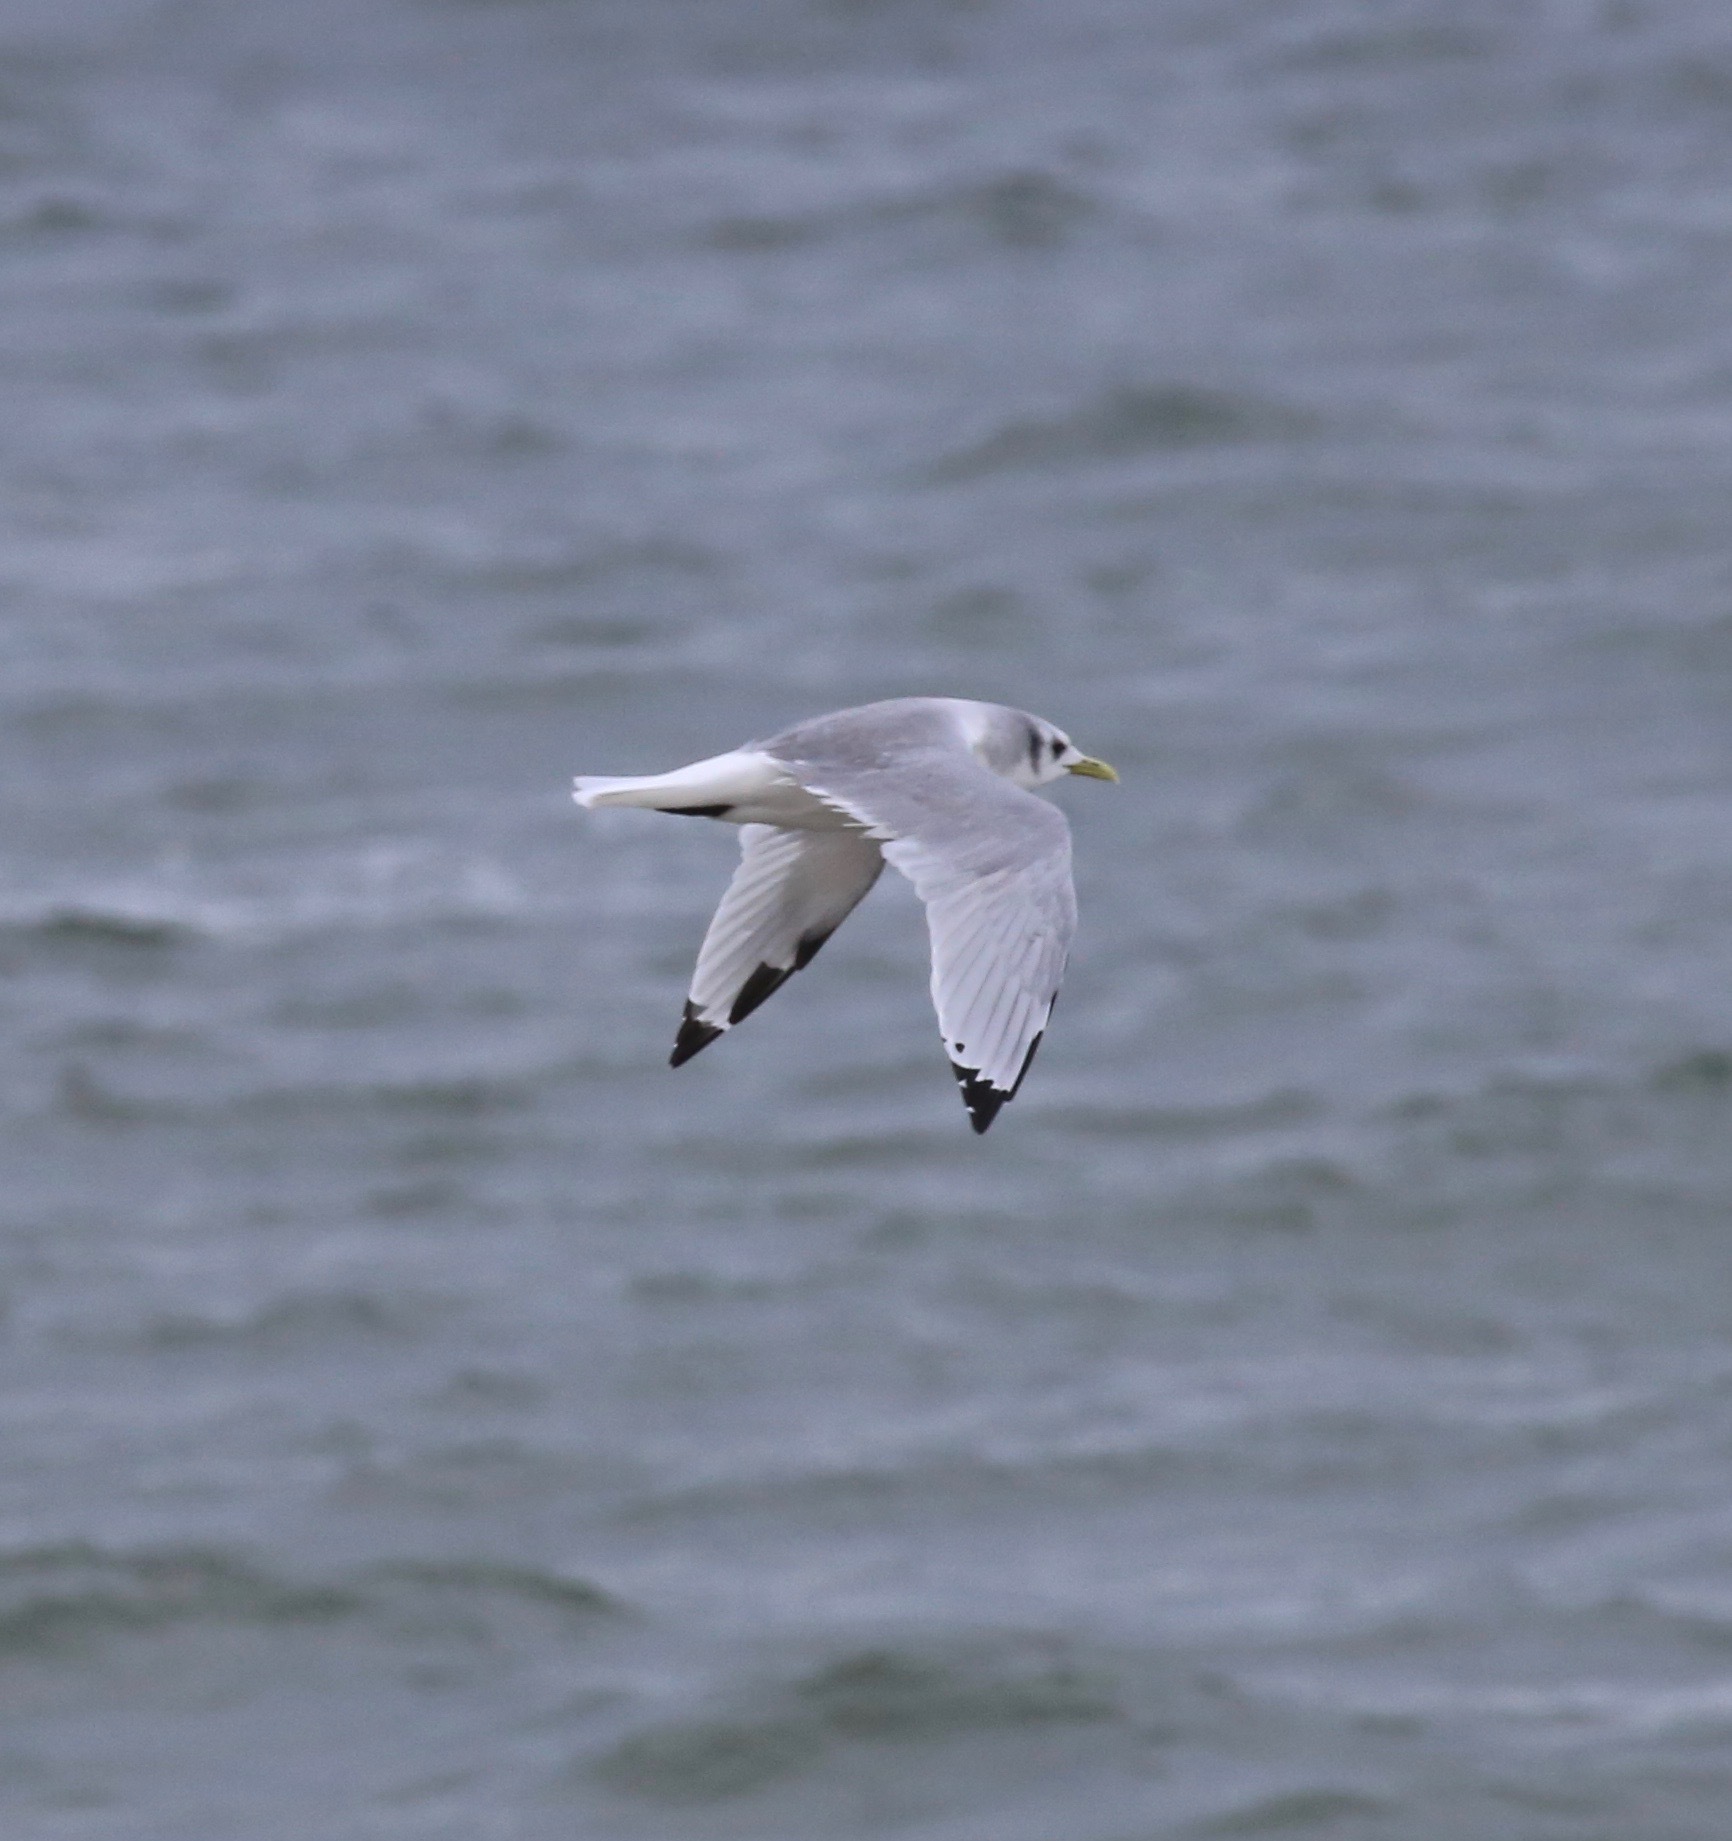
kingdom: Animalia
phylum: Chordata
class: Aves
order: Charadriiformes
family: Laridae
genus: Rissa
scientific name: Rissa tridactyla
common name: Black-legged kittiwake
